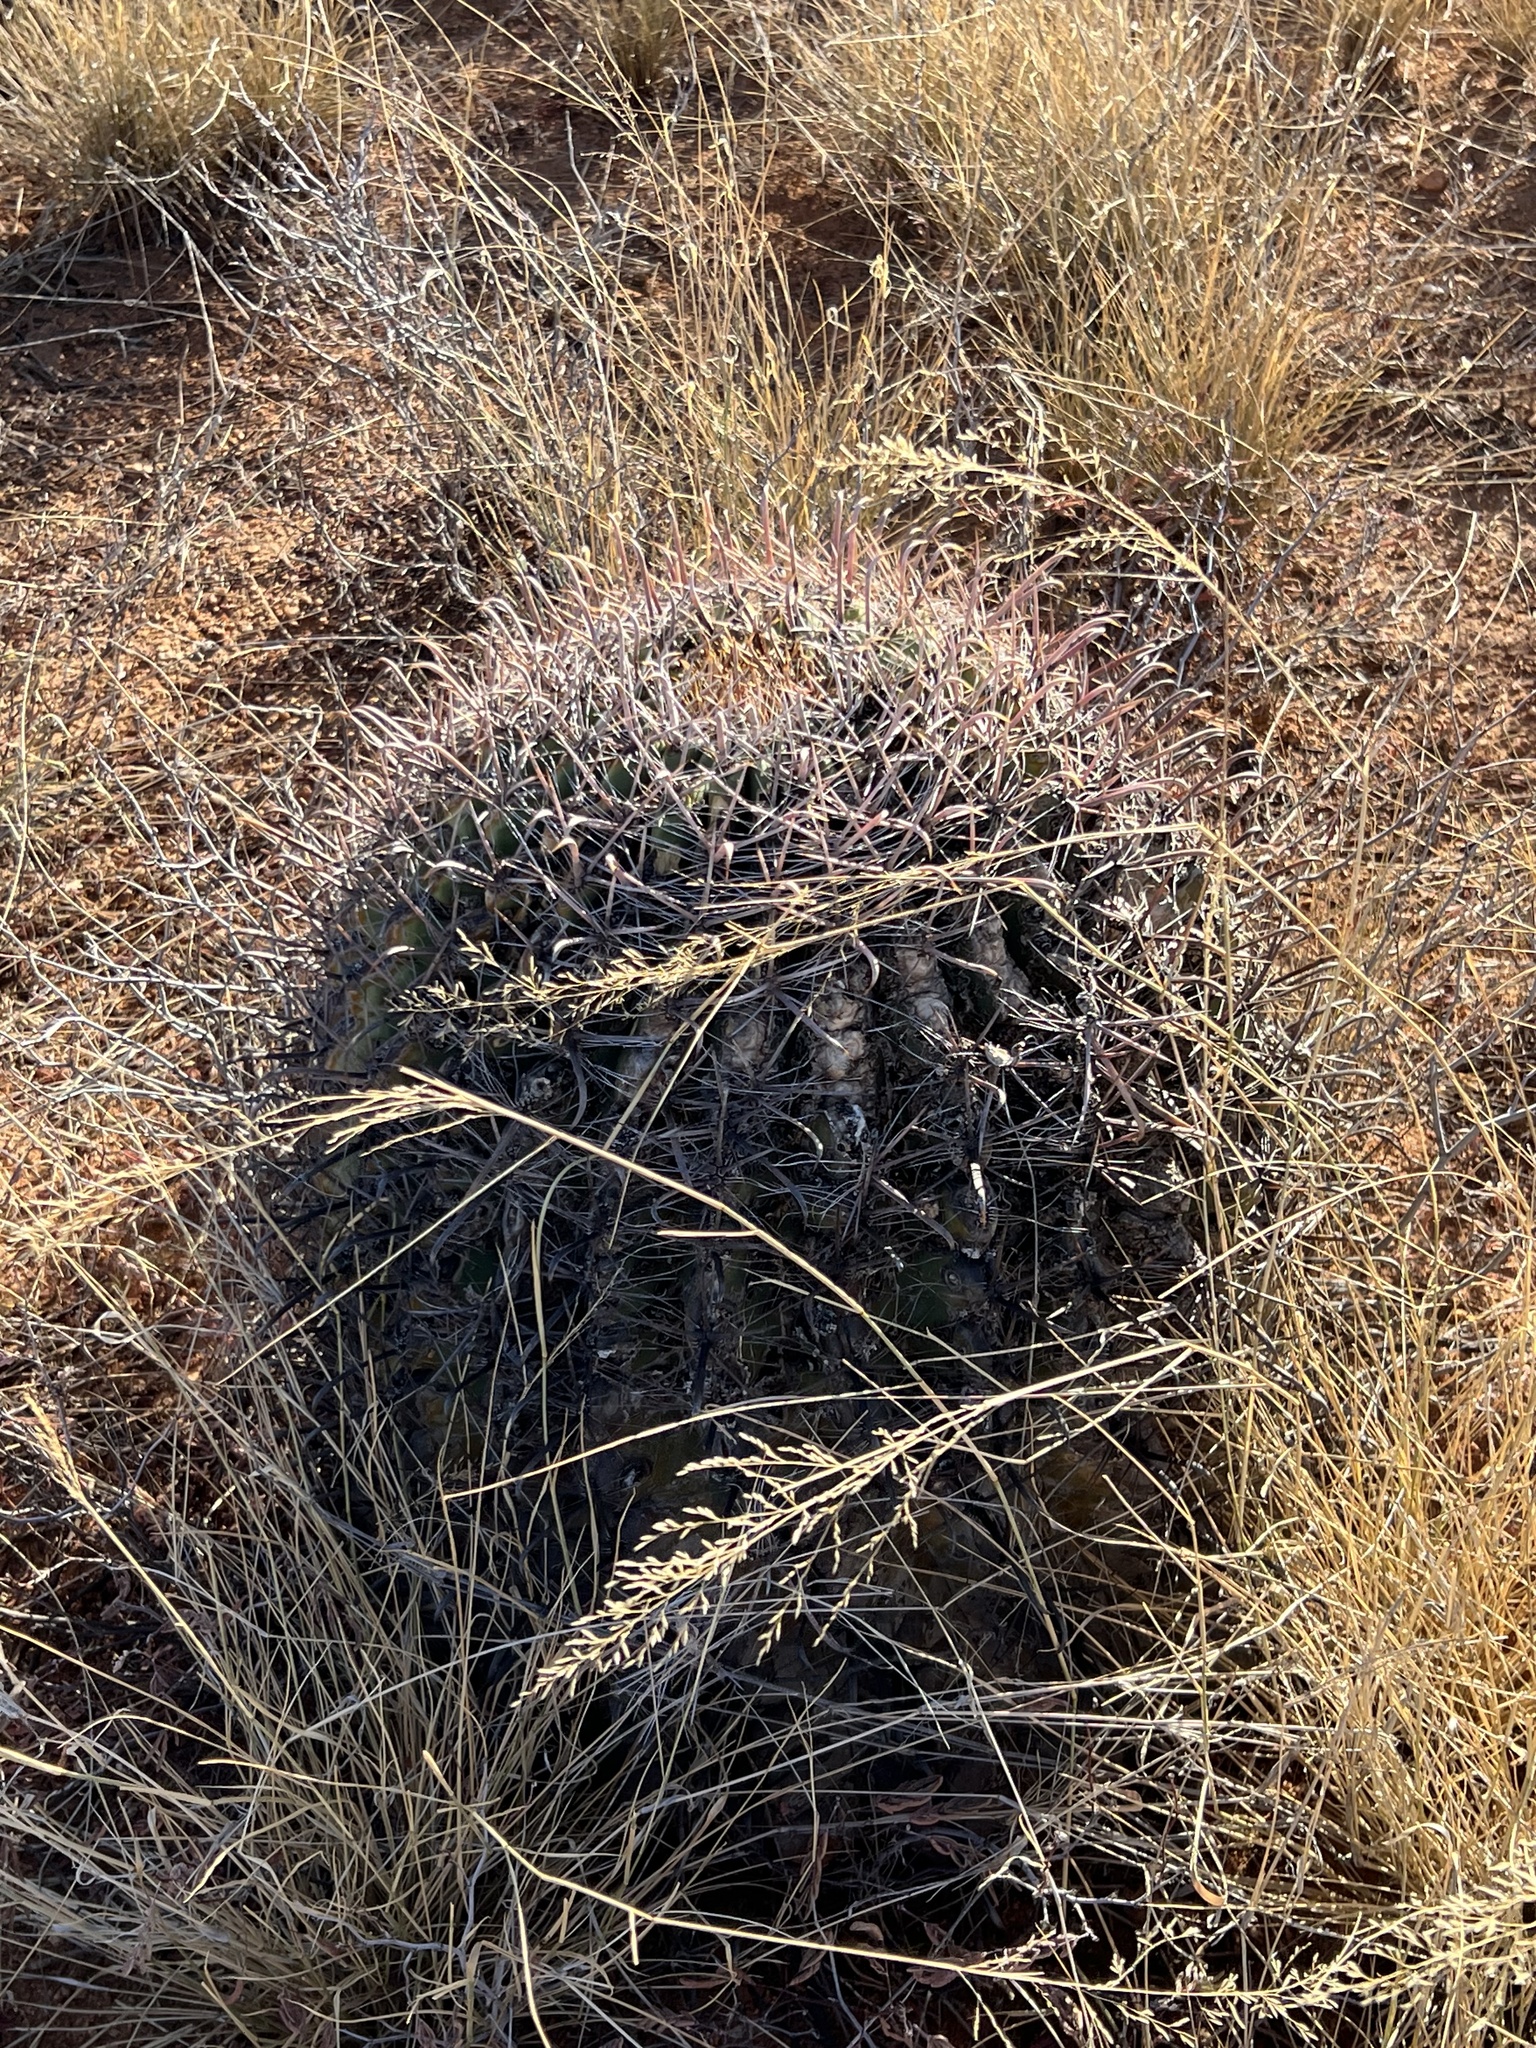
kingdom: Plantae
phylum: Tracheophyta
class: Magnoliopsida
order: Caryophyllales
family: Cactaceae
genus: Ferocactus
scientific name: Ferocactus wislizeni
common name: Candy barrel cactus
